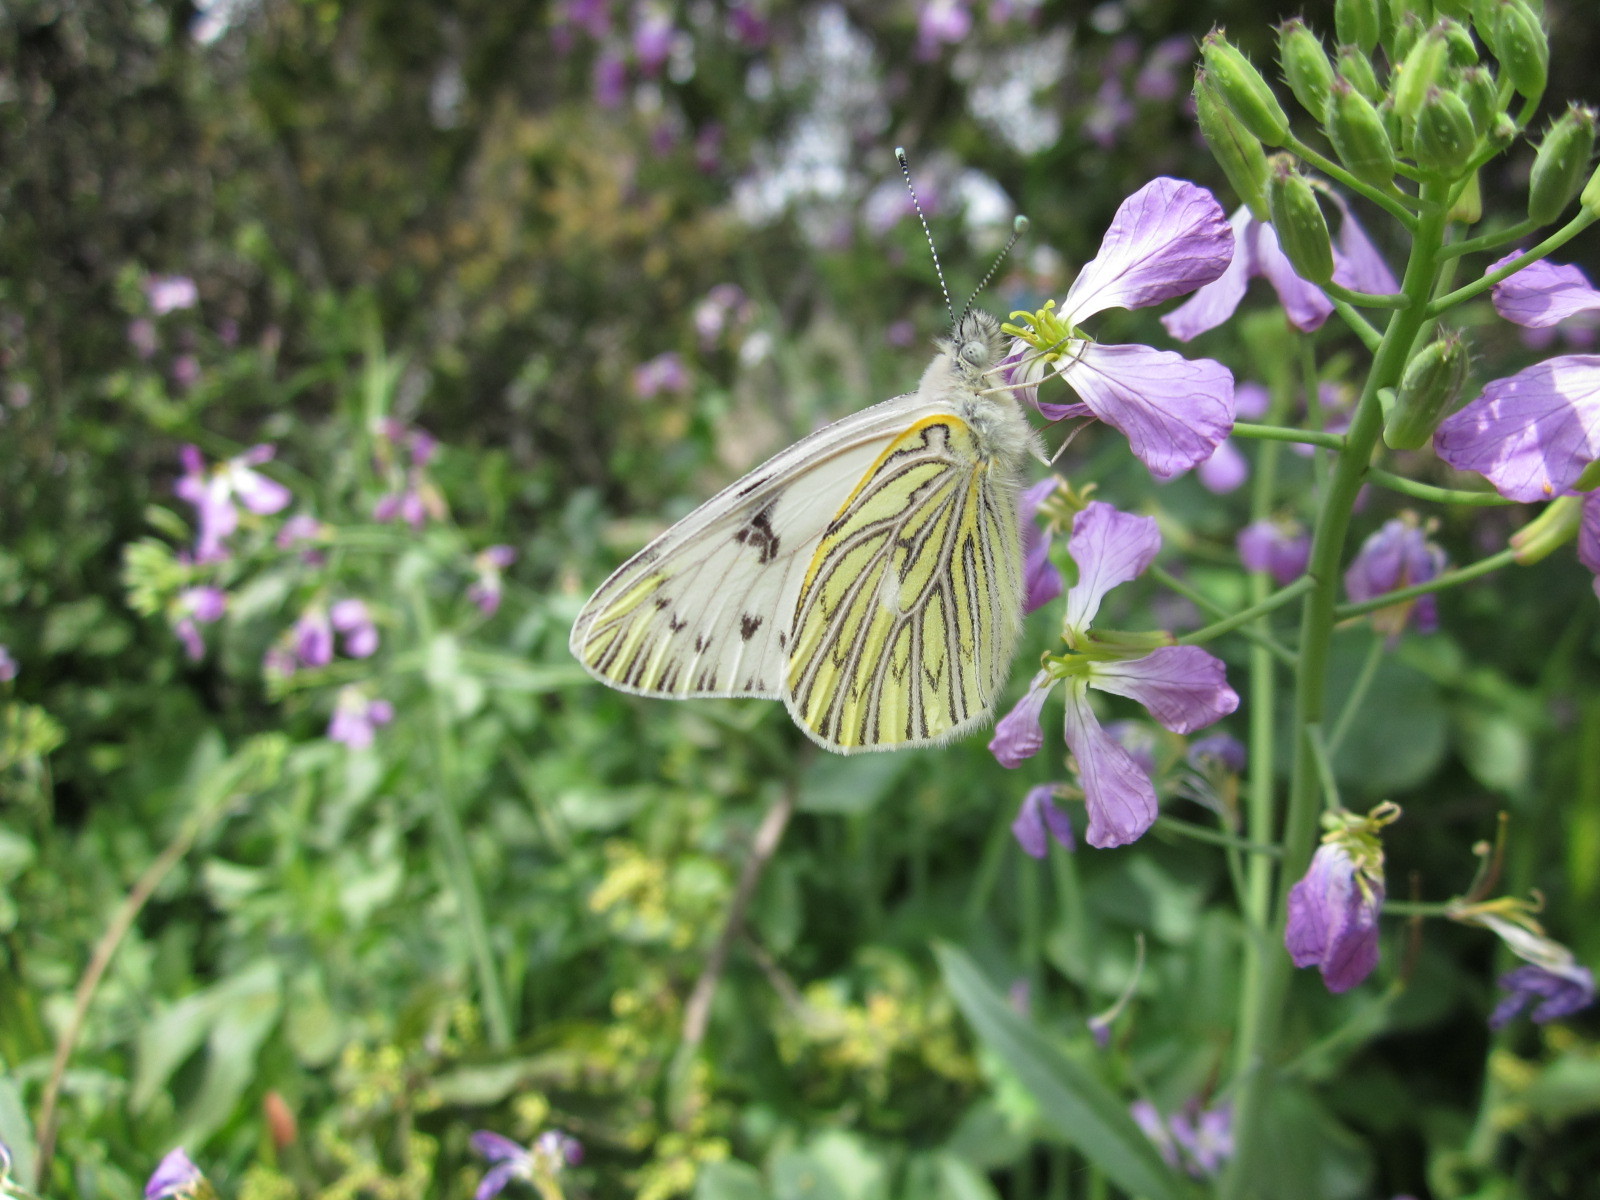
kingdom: Animalia
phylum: Arthropoda
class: Insecta
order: Lepidoptera
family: Pieridae
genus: Tatochila
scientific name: Tatochila mercedis
